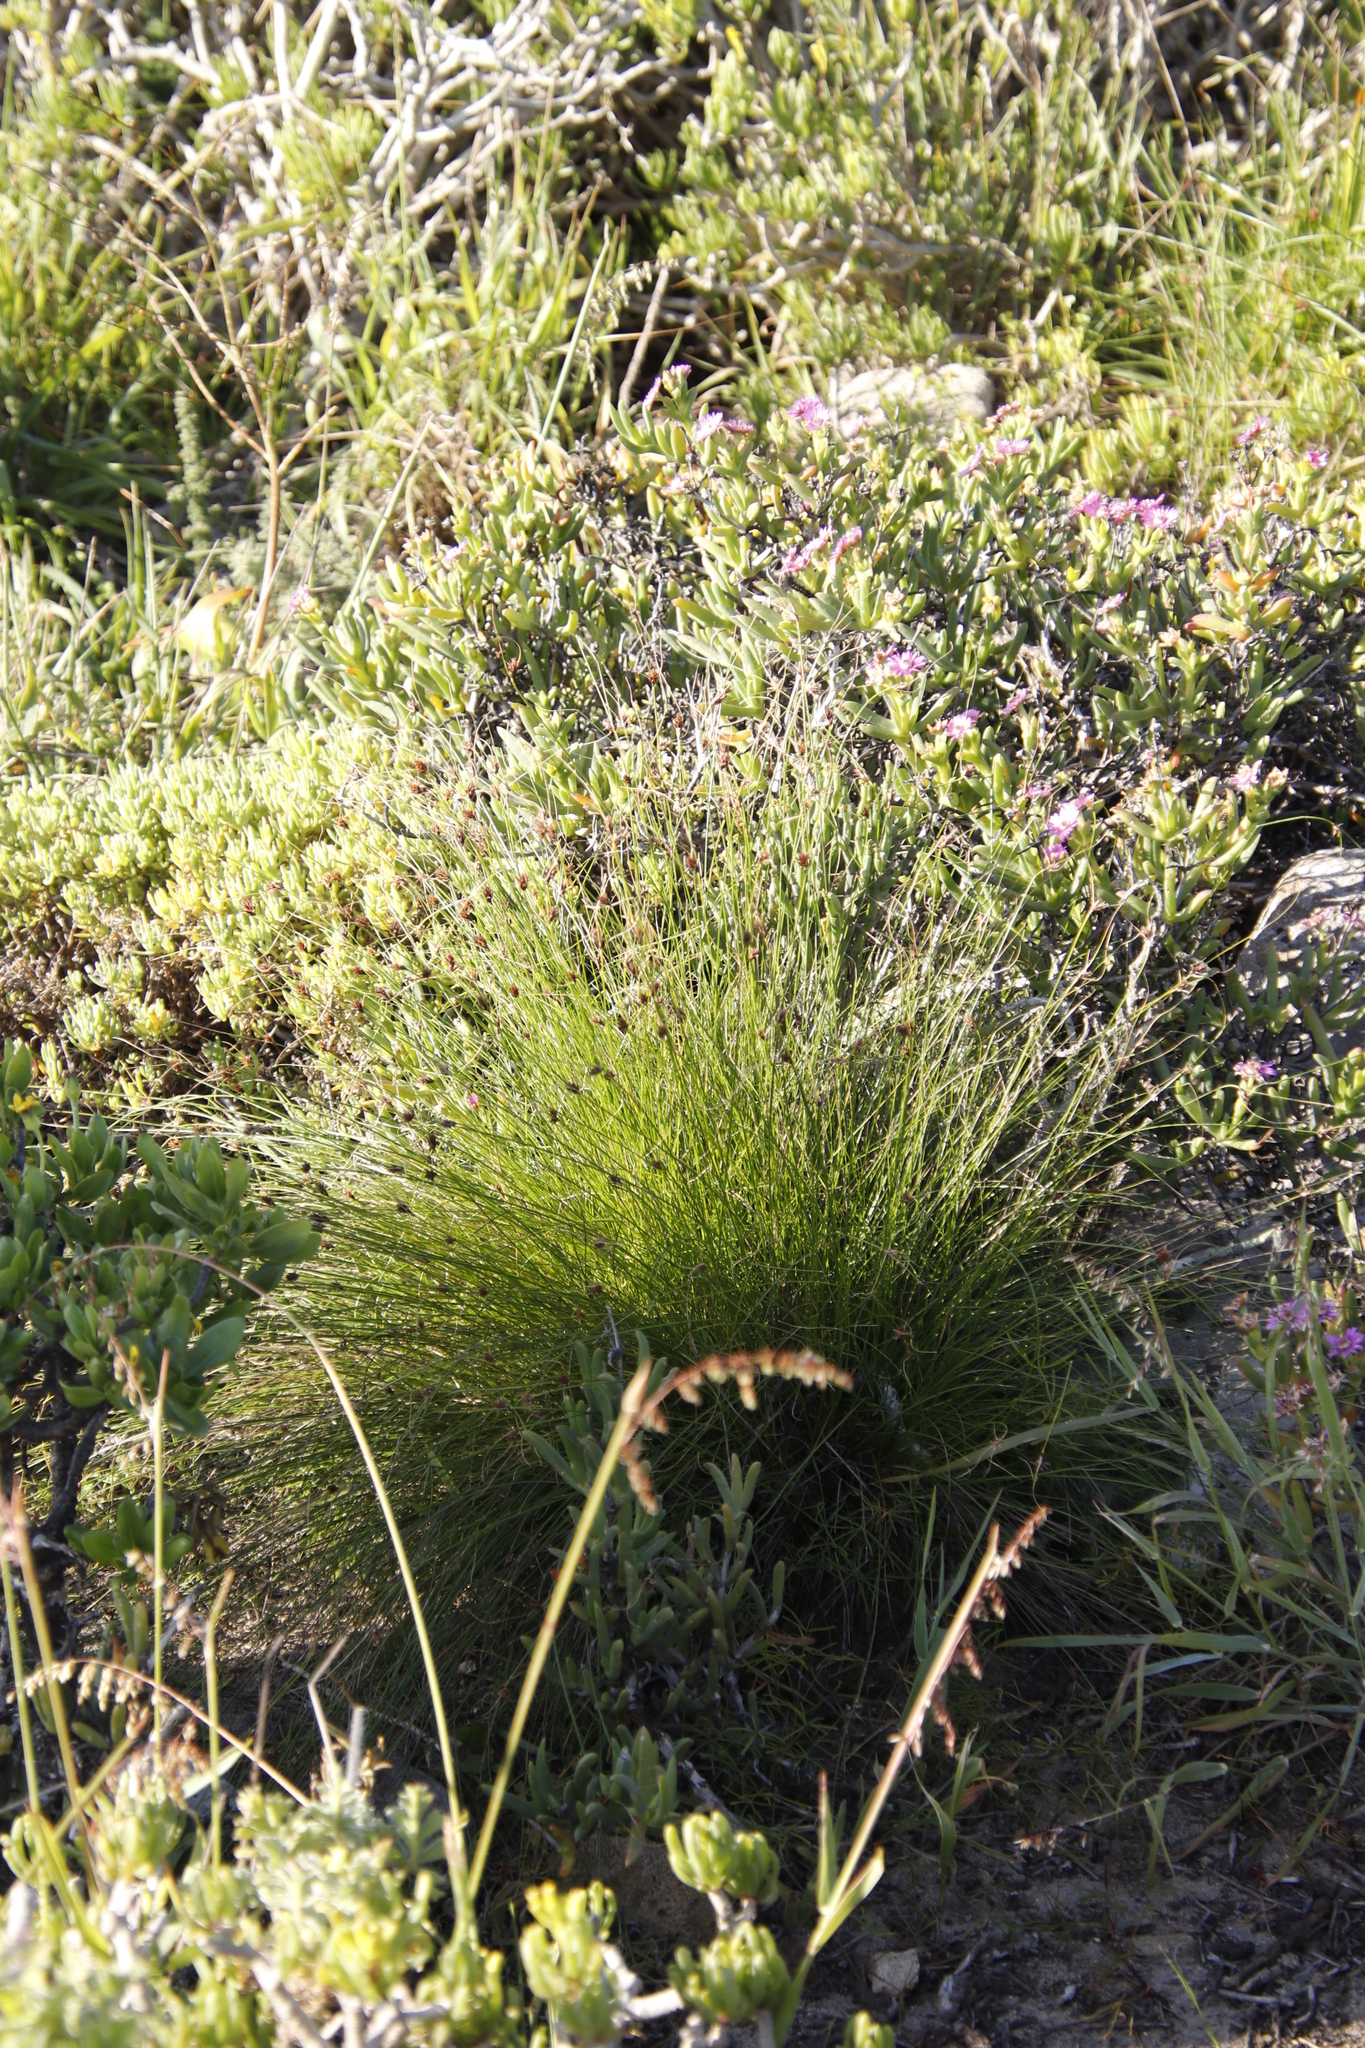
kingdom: Plantae
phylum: Tracheophyta
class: Liliopsida
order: Poales
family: Cyperaceae
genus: Ficinia
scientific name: Ficinia nigrescens
